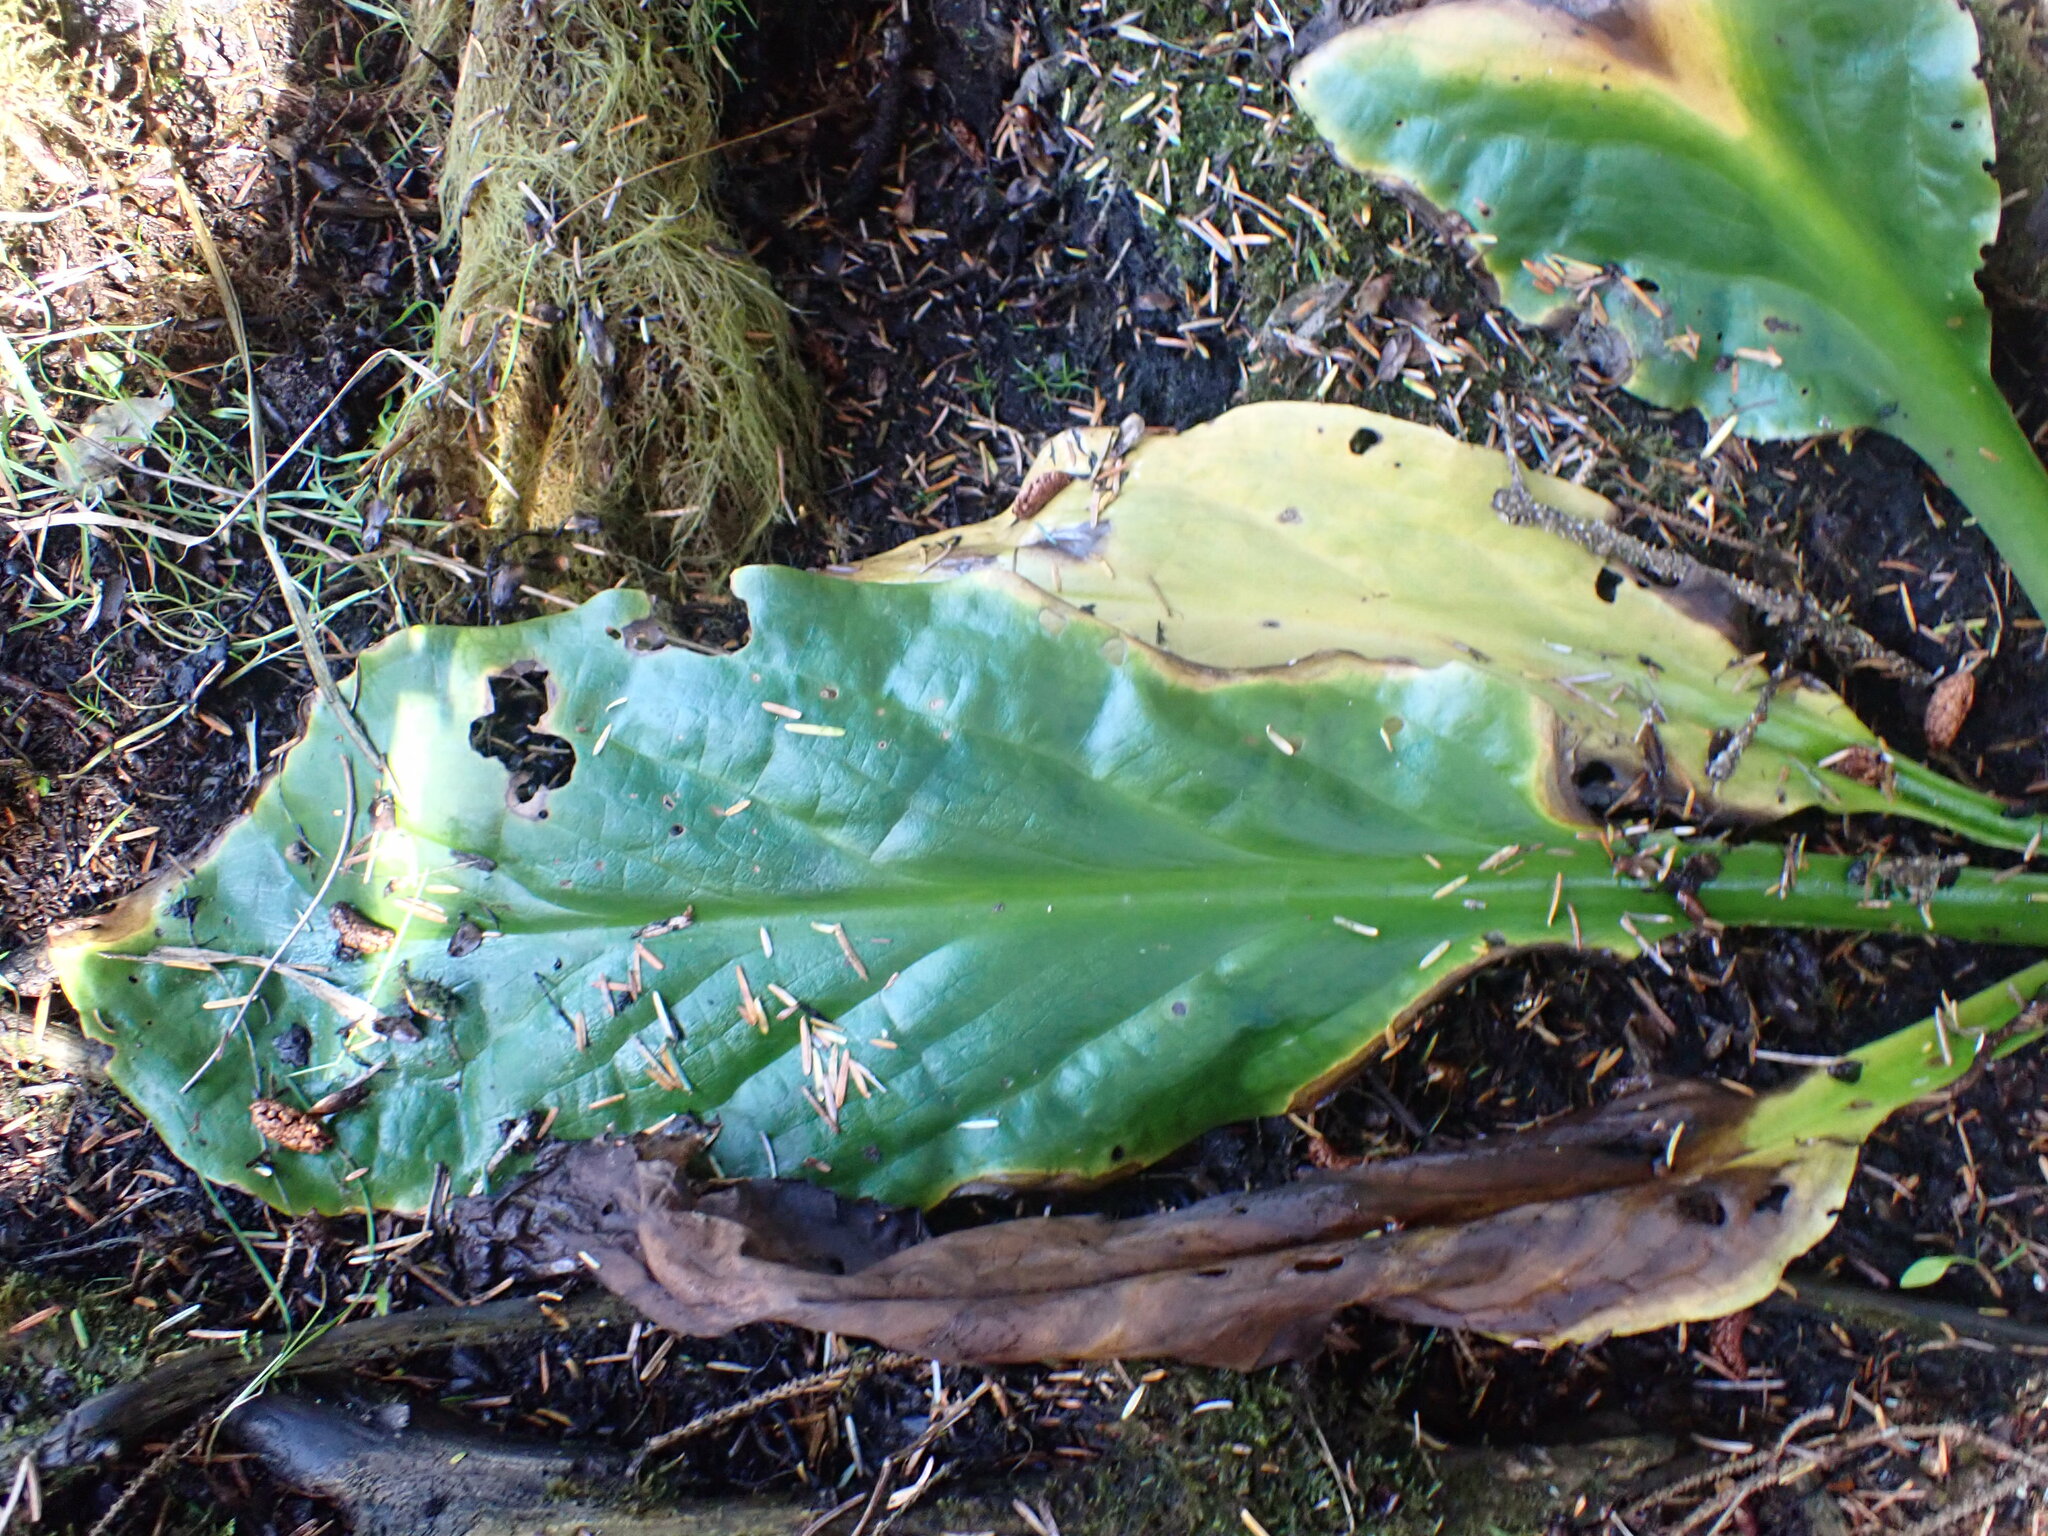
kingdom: Plantae
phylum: Tracheophyta
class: Liliopsida
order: Alismatales
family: Araceae
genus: Lysichiton
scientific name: Lysichiton americanus
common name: American skunk cabbage
